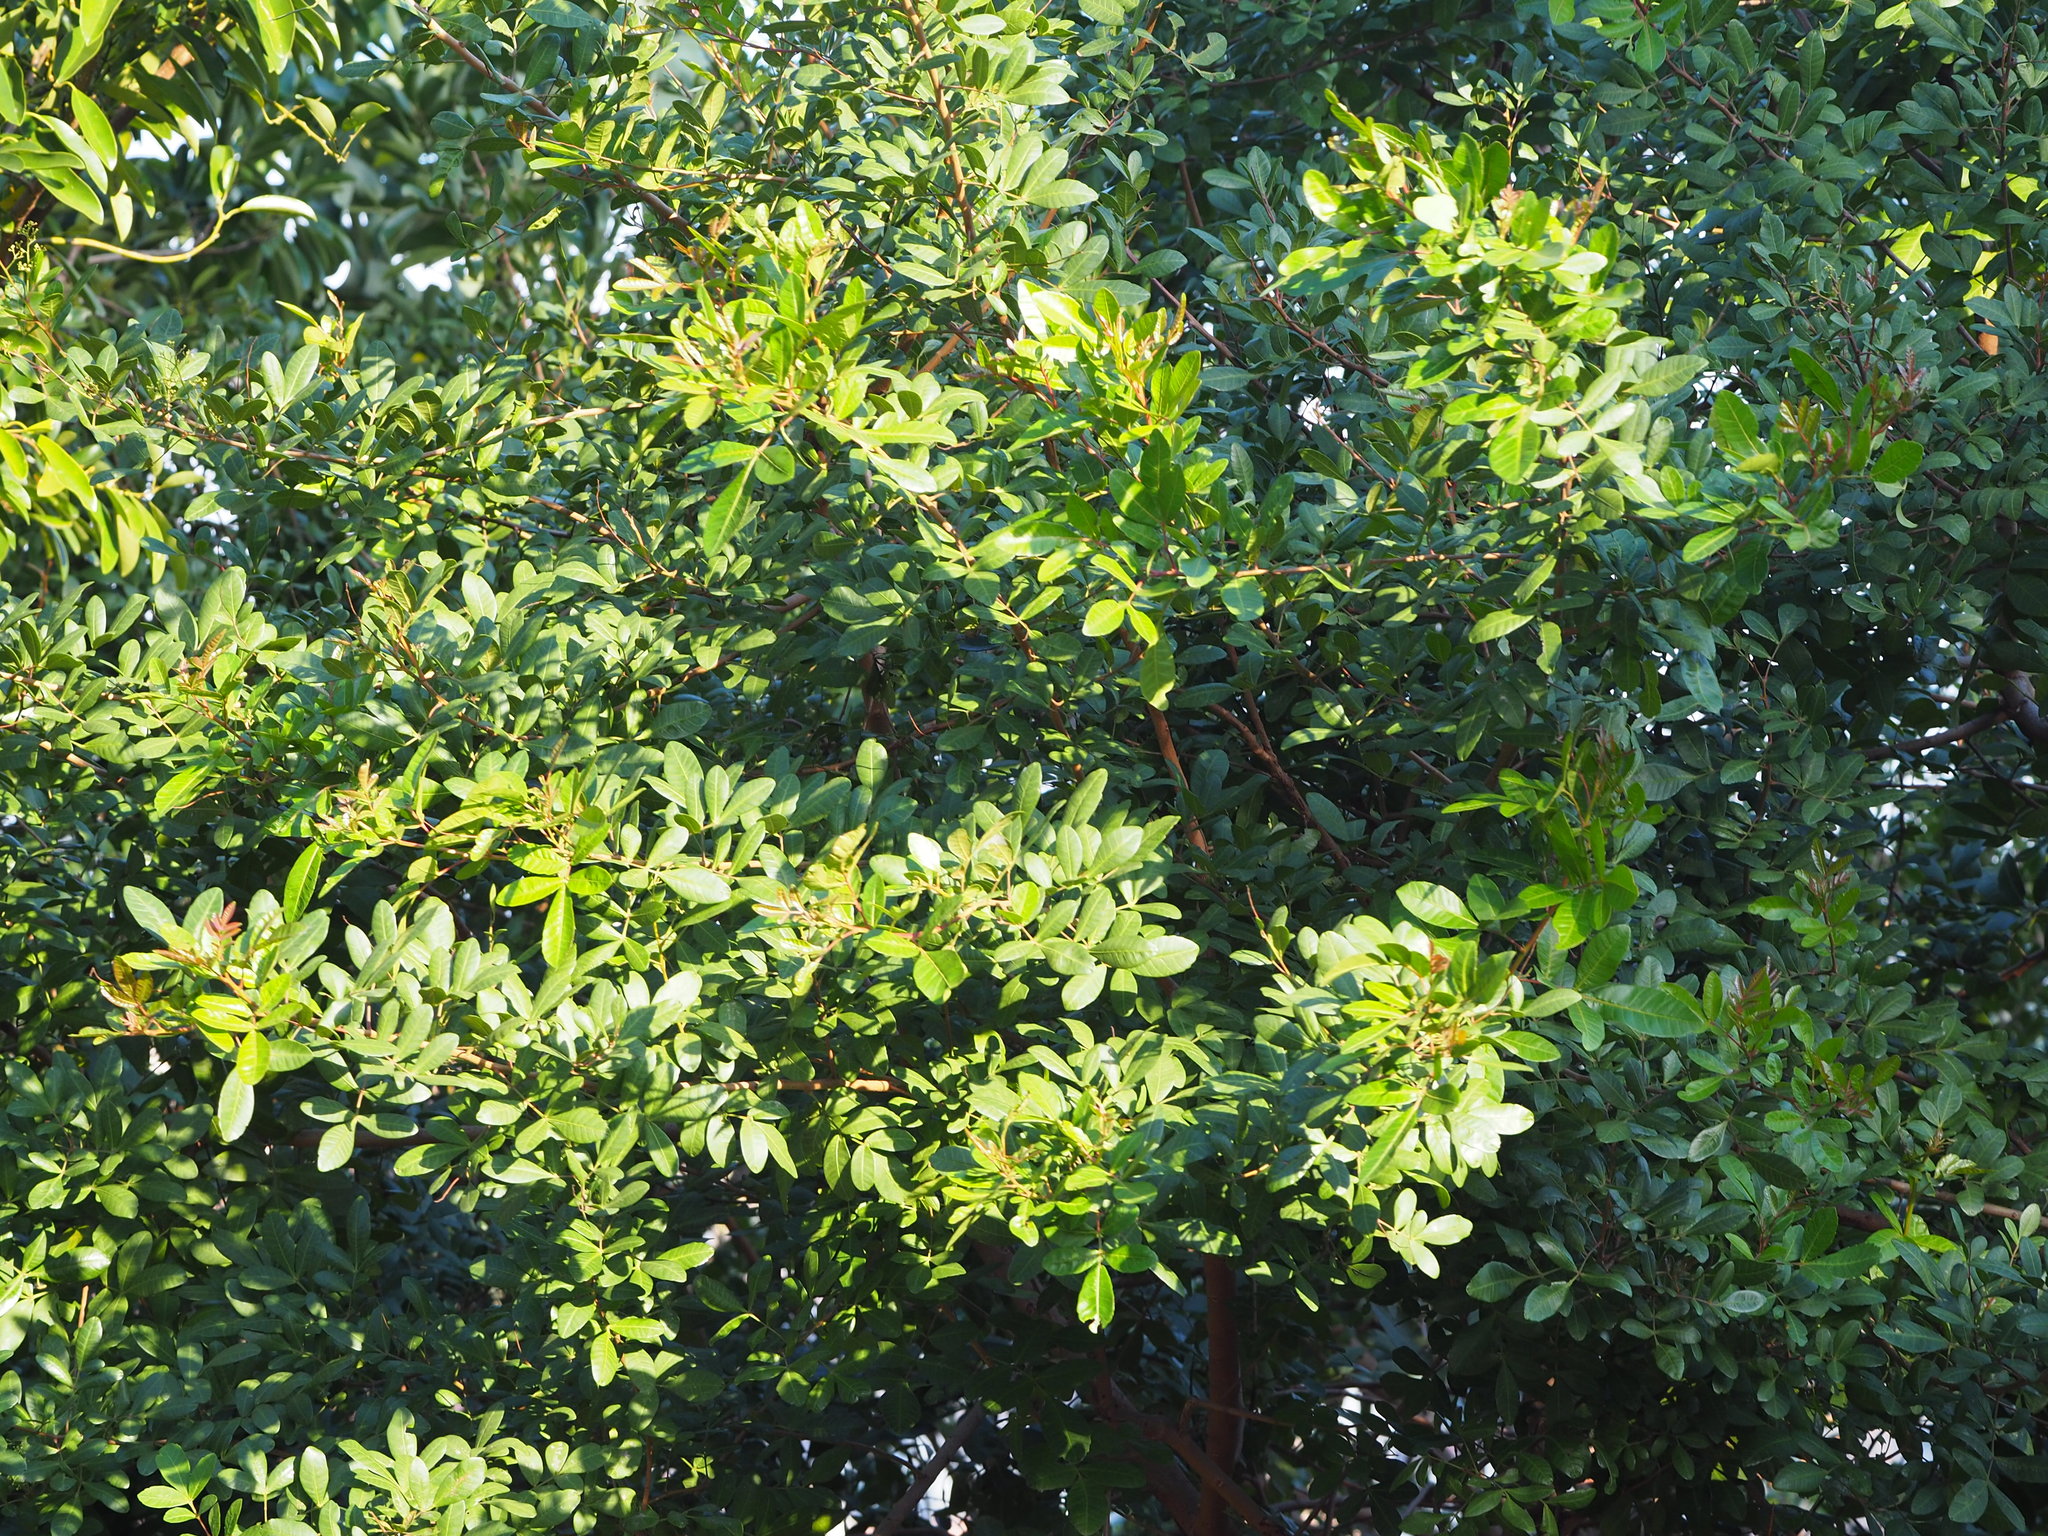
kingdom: Plantae
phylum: Tracheophyta
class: Magnoliopsida
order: Sapindales
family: Anacardiaceae
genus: Schinus
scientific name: Schinus terebinthifolia
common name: Brazilian peppertree
